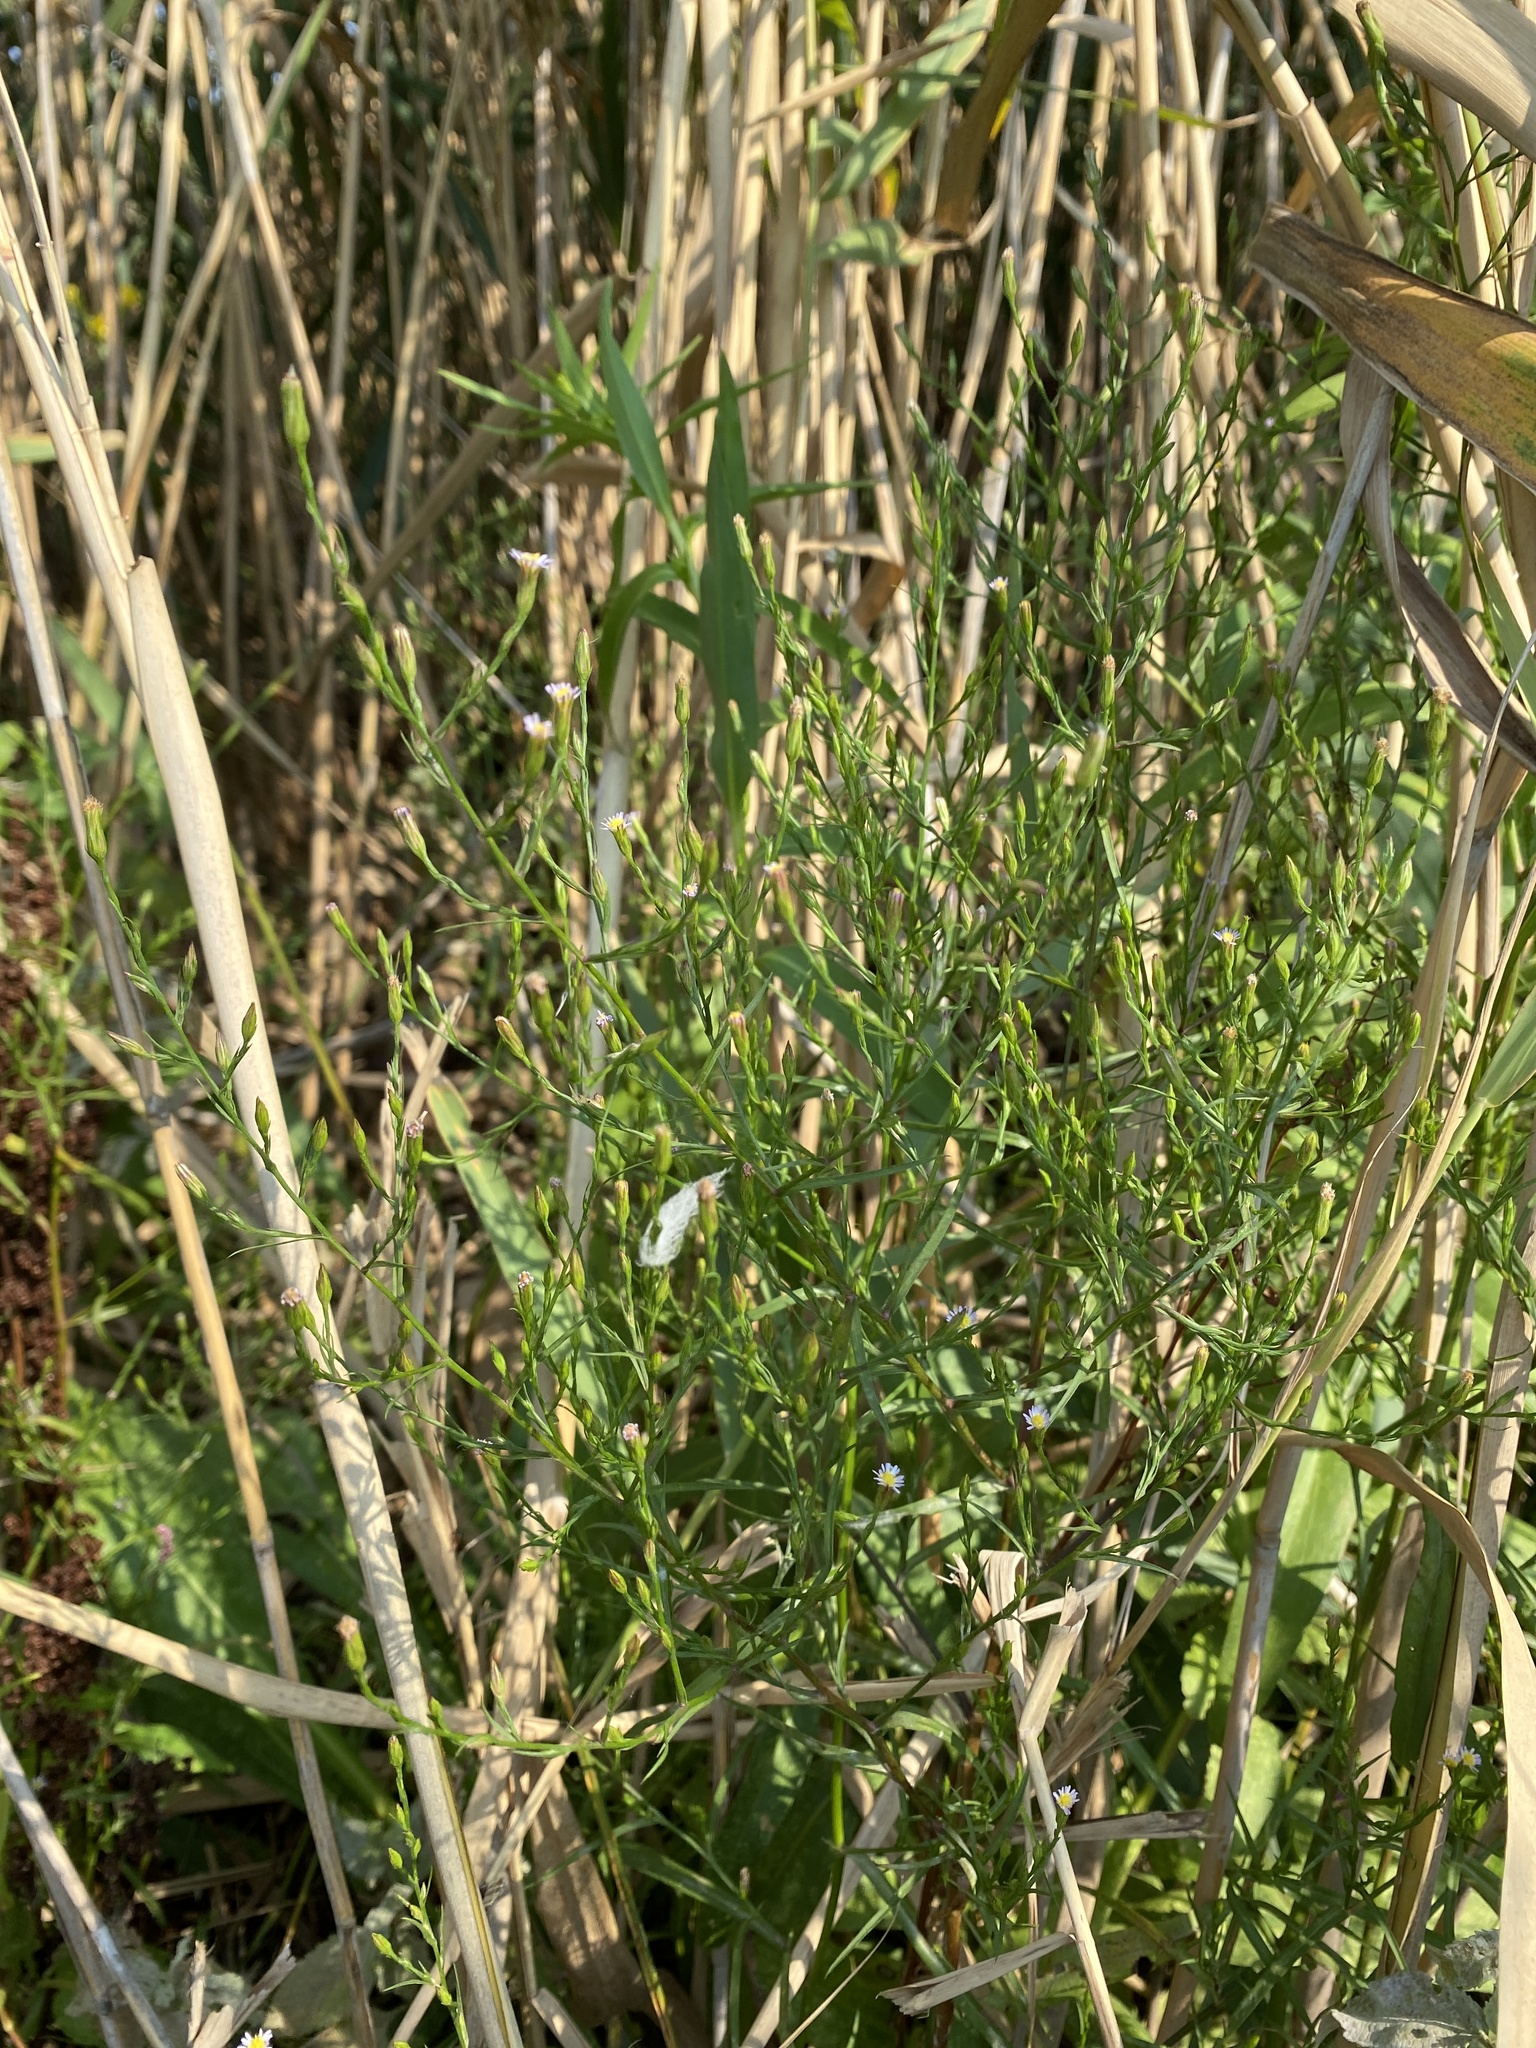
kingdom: Plantae
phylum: Tracheophyta
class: Magnoliopsida
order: Asterales
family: Asteraceae
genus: Symphyotrichum
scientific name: Symphyotrichum subulatum
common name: Annual saltmarsh aster
